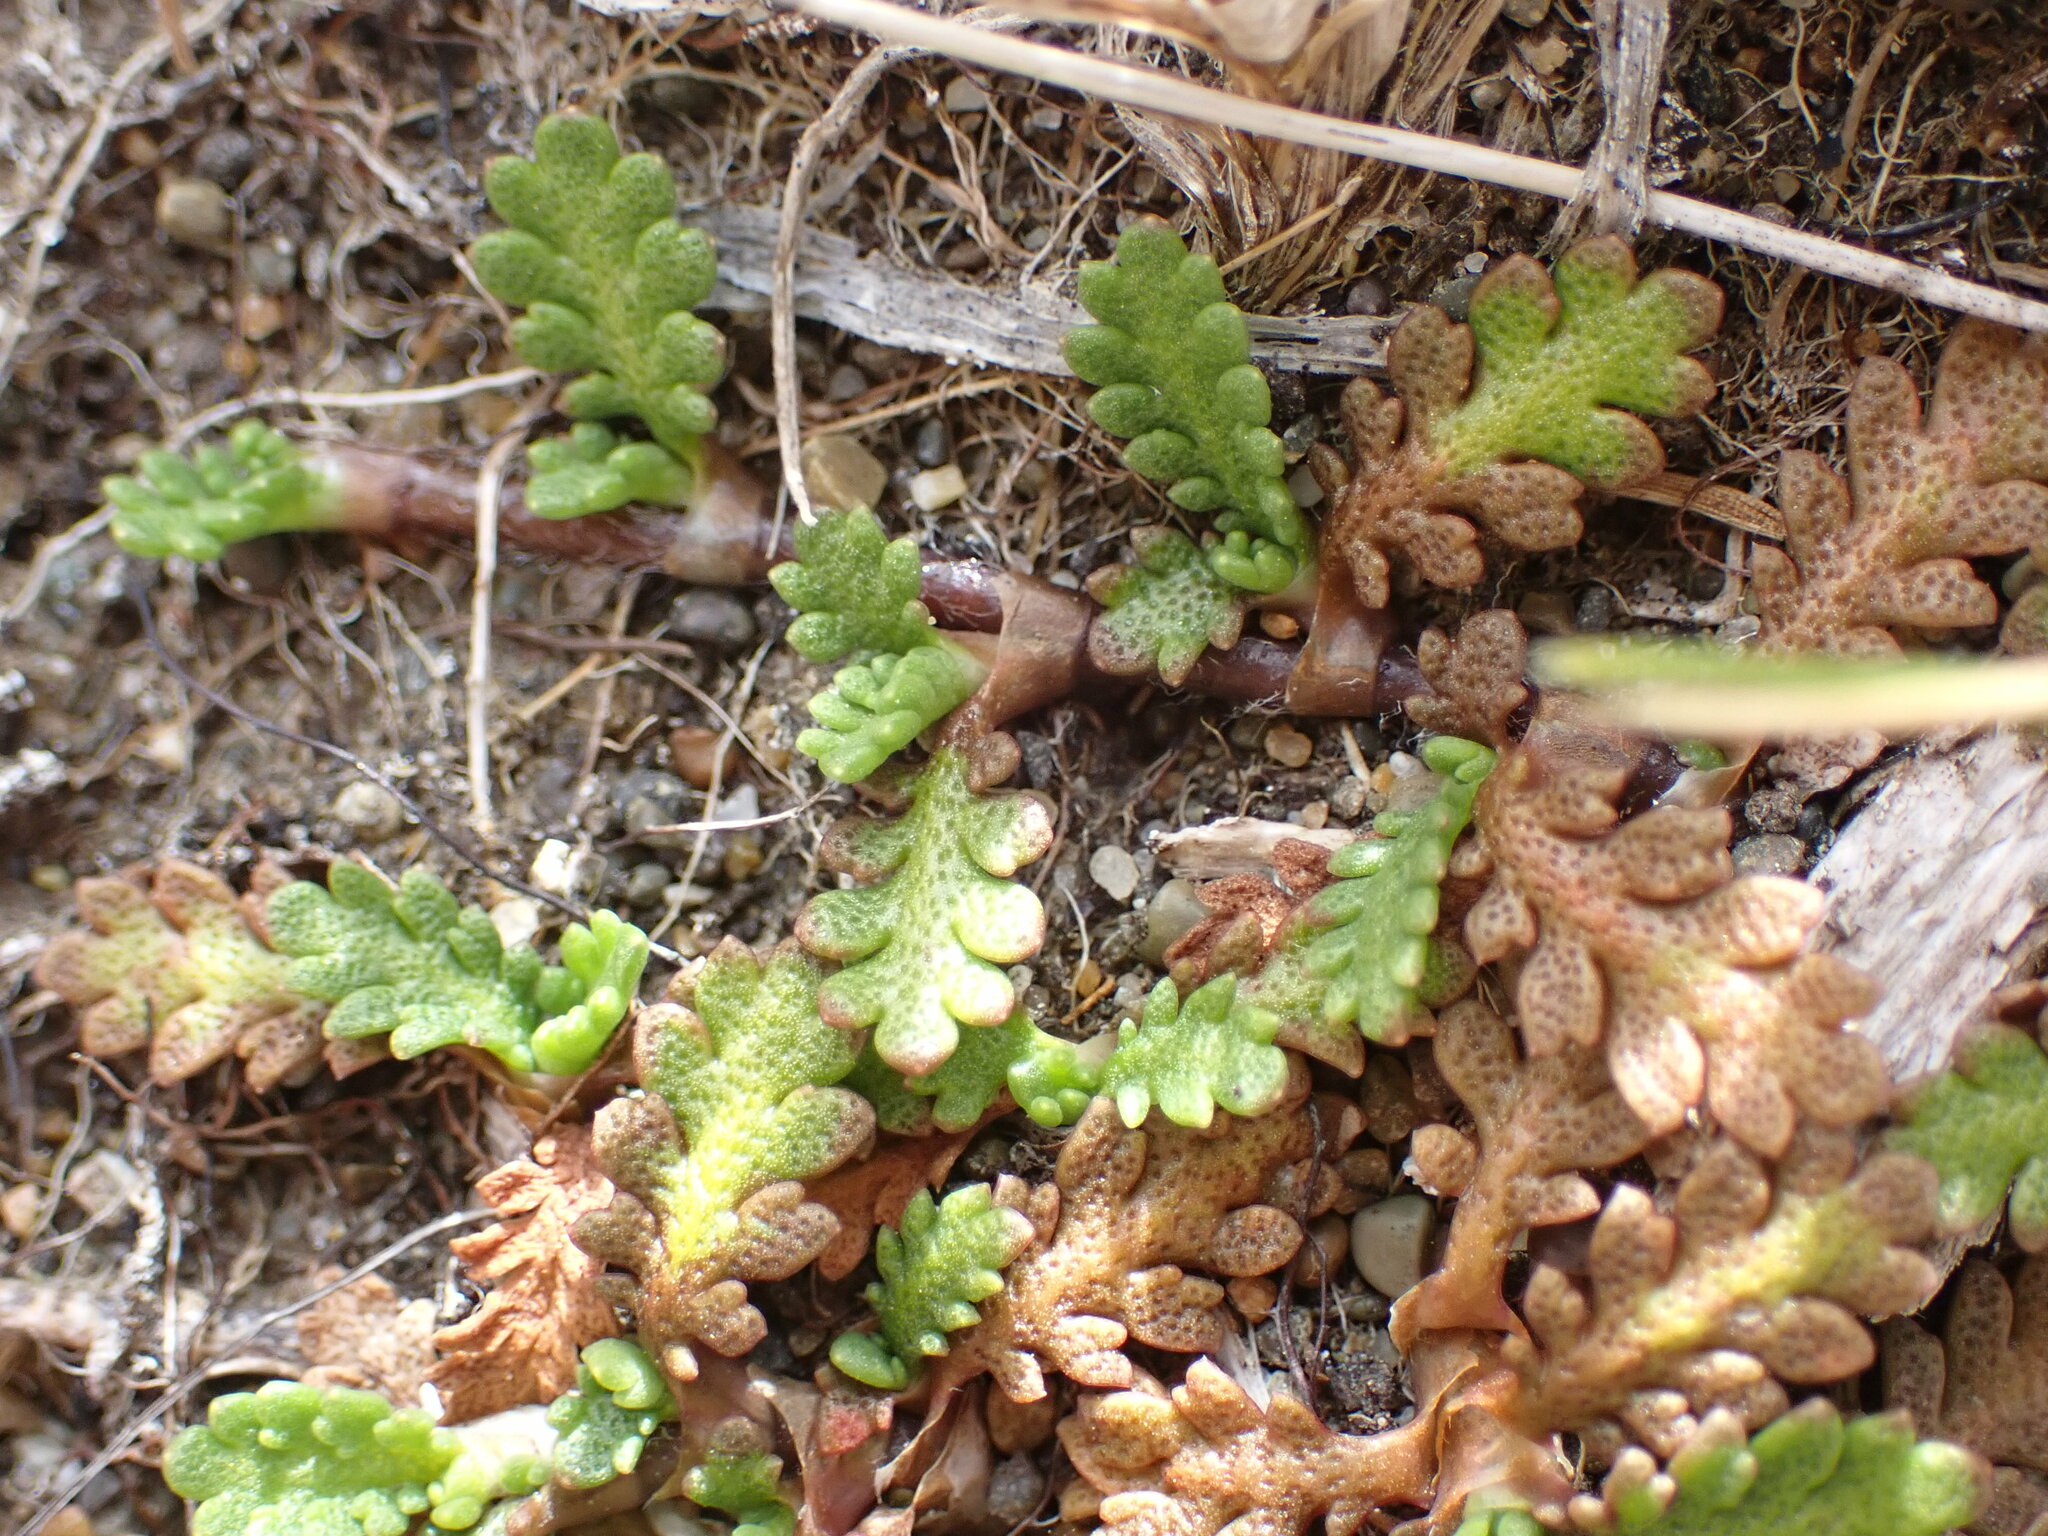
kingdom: Plantae
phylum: Tracheophyta
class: Magnoliopsida
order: Asterales
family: Asteraceae
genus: Leptinella
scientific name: Leptinella dioica
